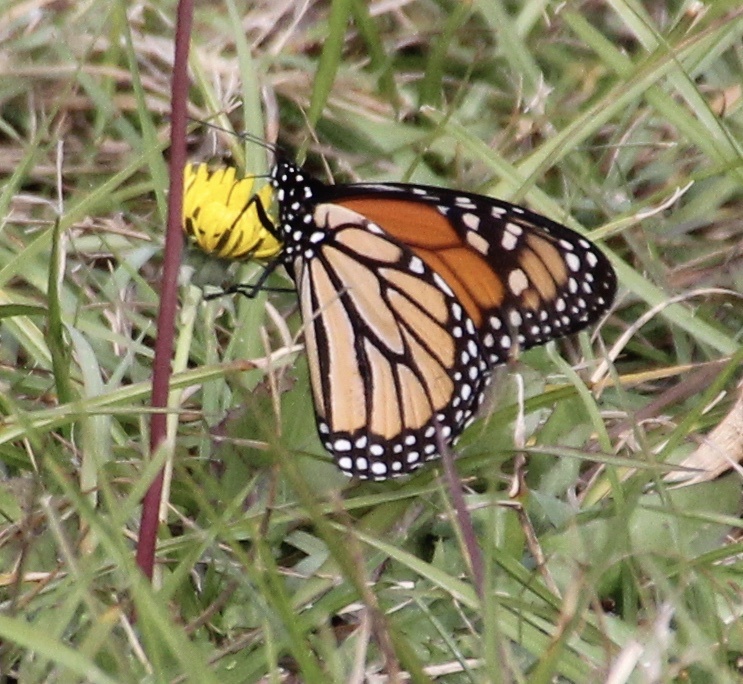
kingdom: Animalia
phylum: Arthropoda
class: Insecta
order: Lepidoptera
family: Nymphalidae
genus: Danaus
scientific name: Danaus plexippus
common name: Monarch
